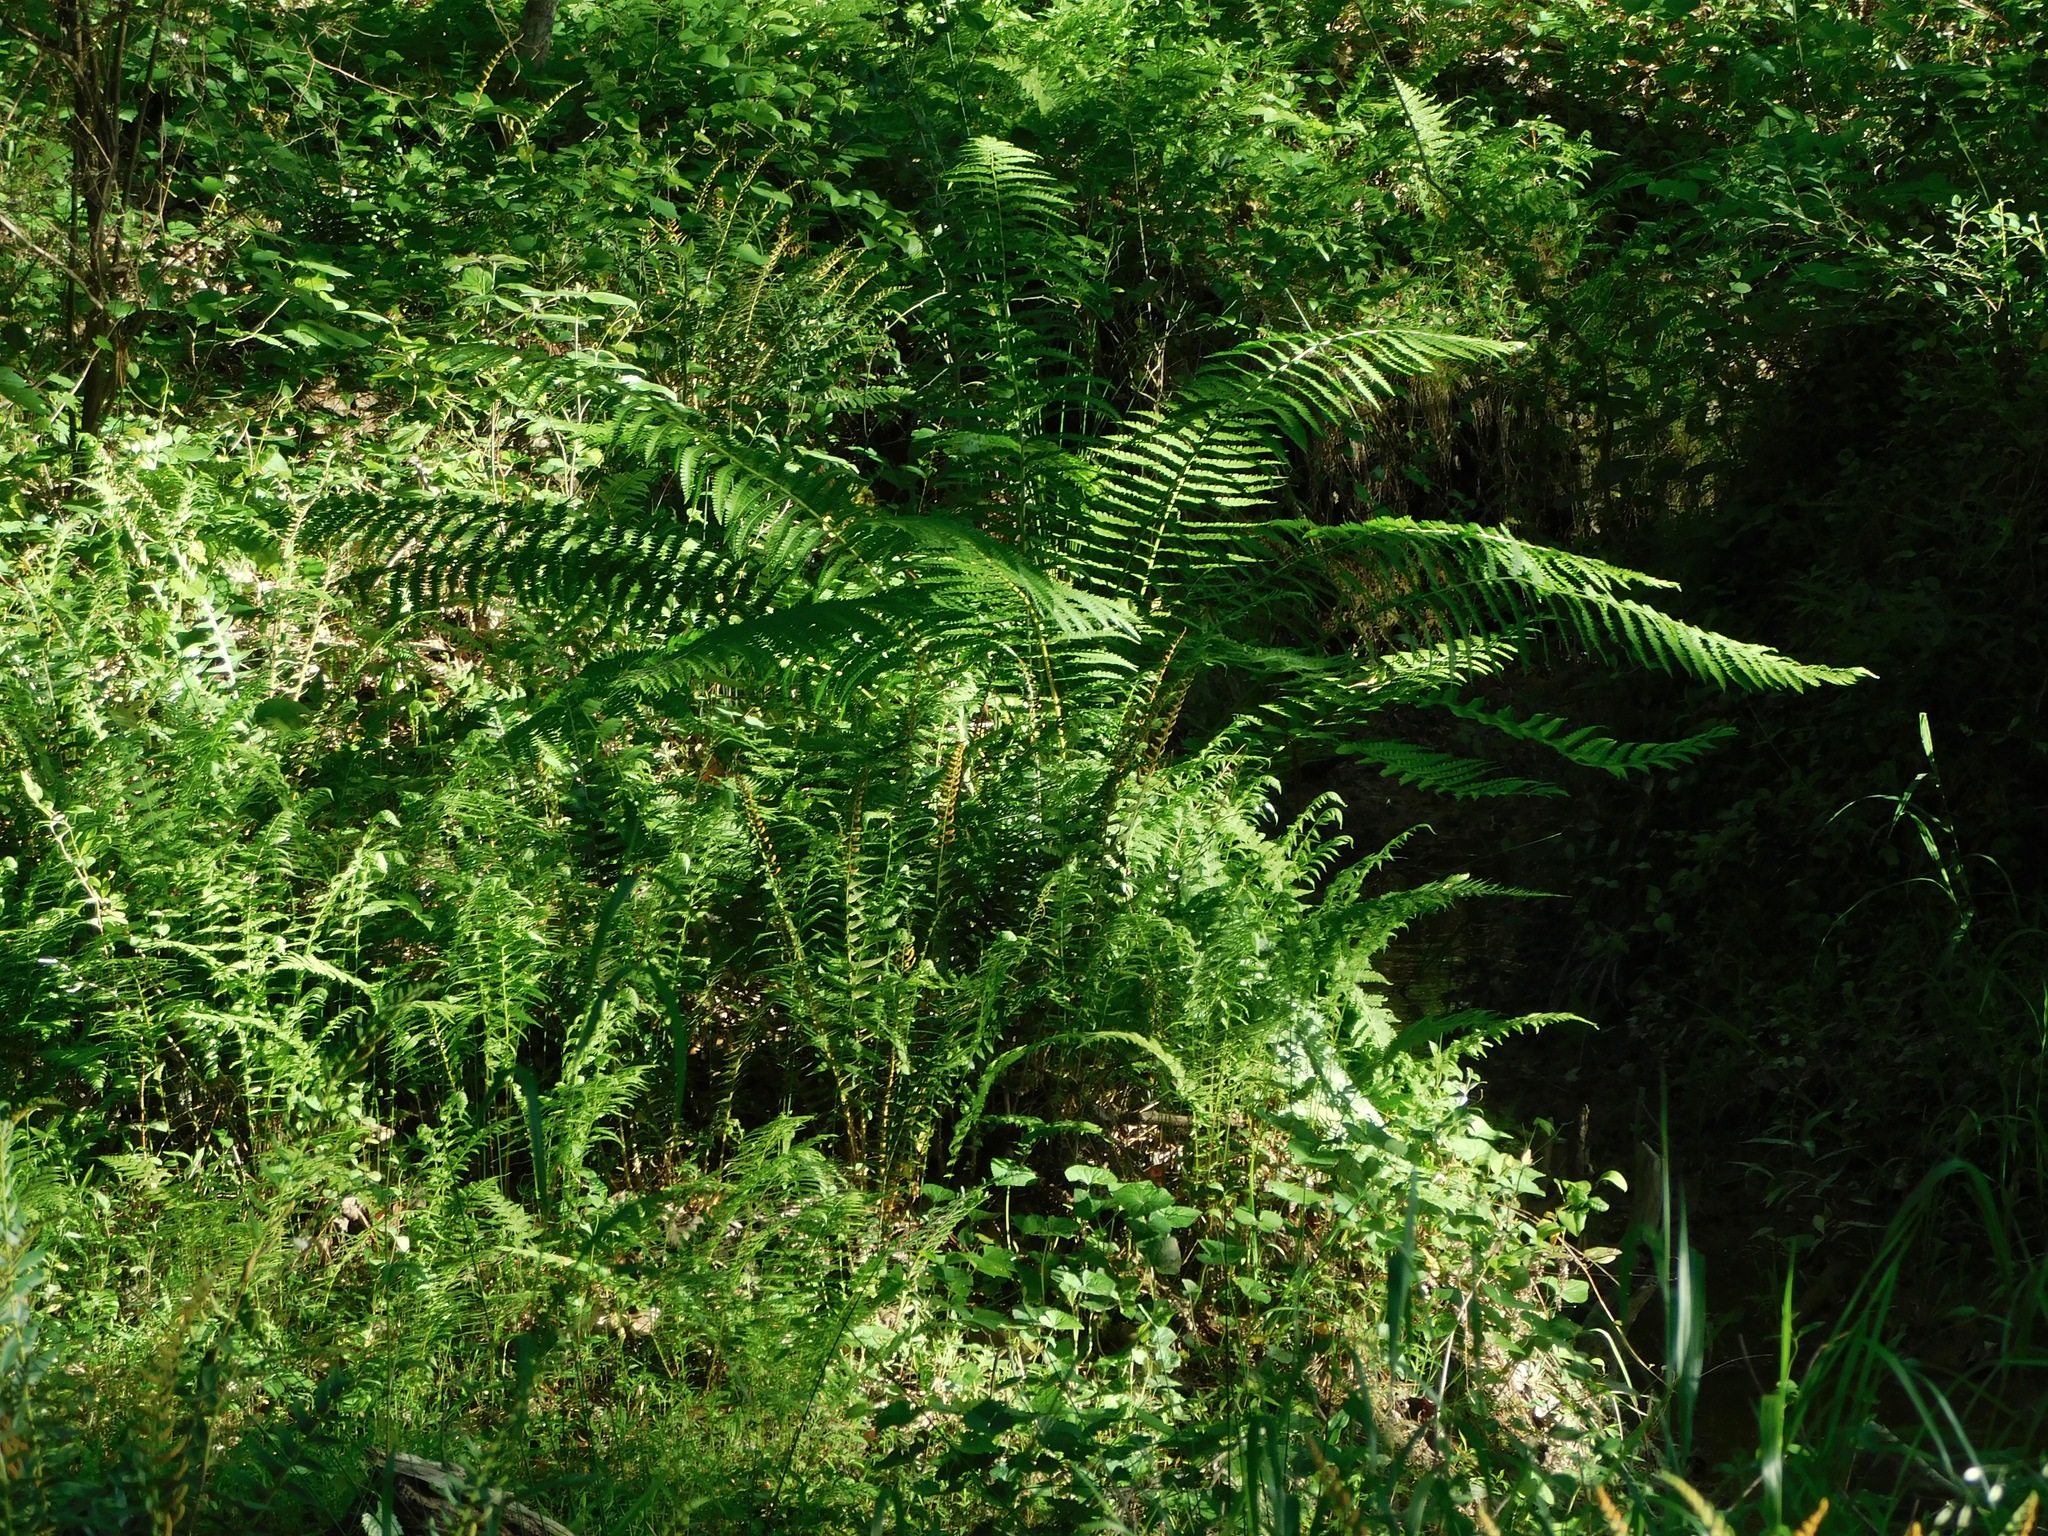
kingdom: Plantae
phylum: Tracheophyta
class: Polypodiopsida
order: Osmundales
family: Osmundaceae
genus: Osmundastrum
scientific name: Osmundastrum cinnamomeum
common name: Cinnamon fern
